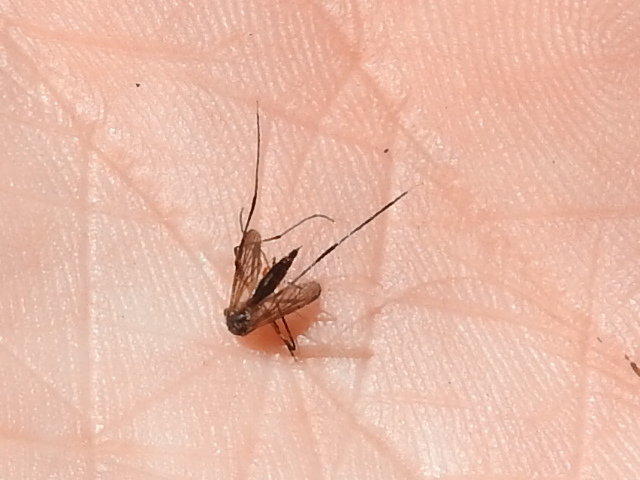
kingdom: Animalia
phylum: Arthropoda
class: Insecta
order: Diptera
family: Culicidae
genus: Psorophora
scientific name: Psorophora ferox
